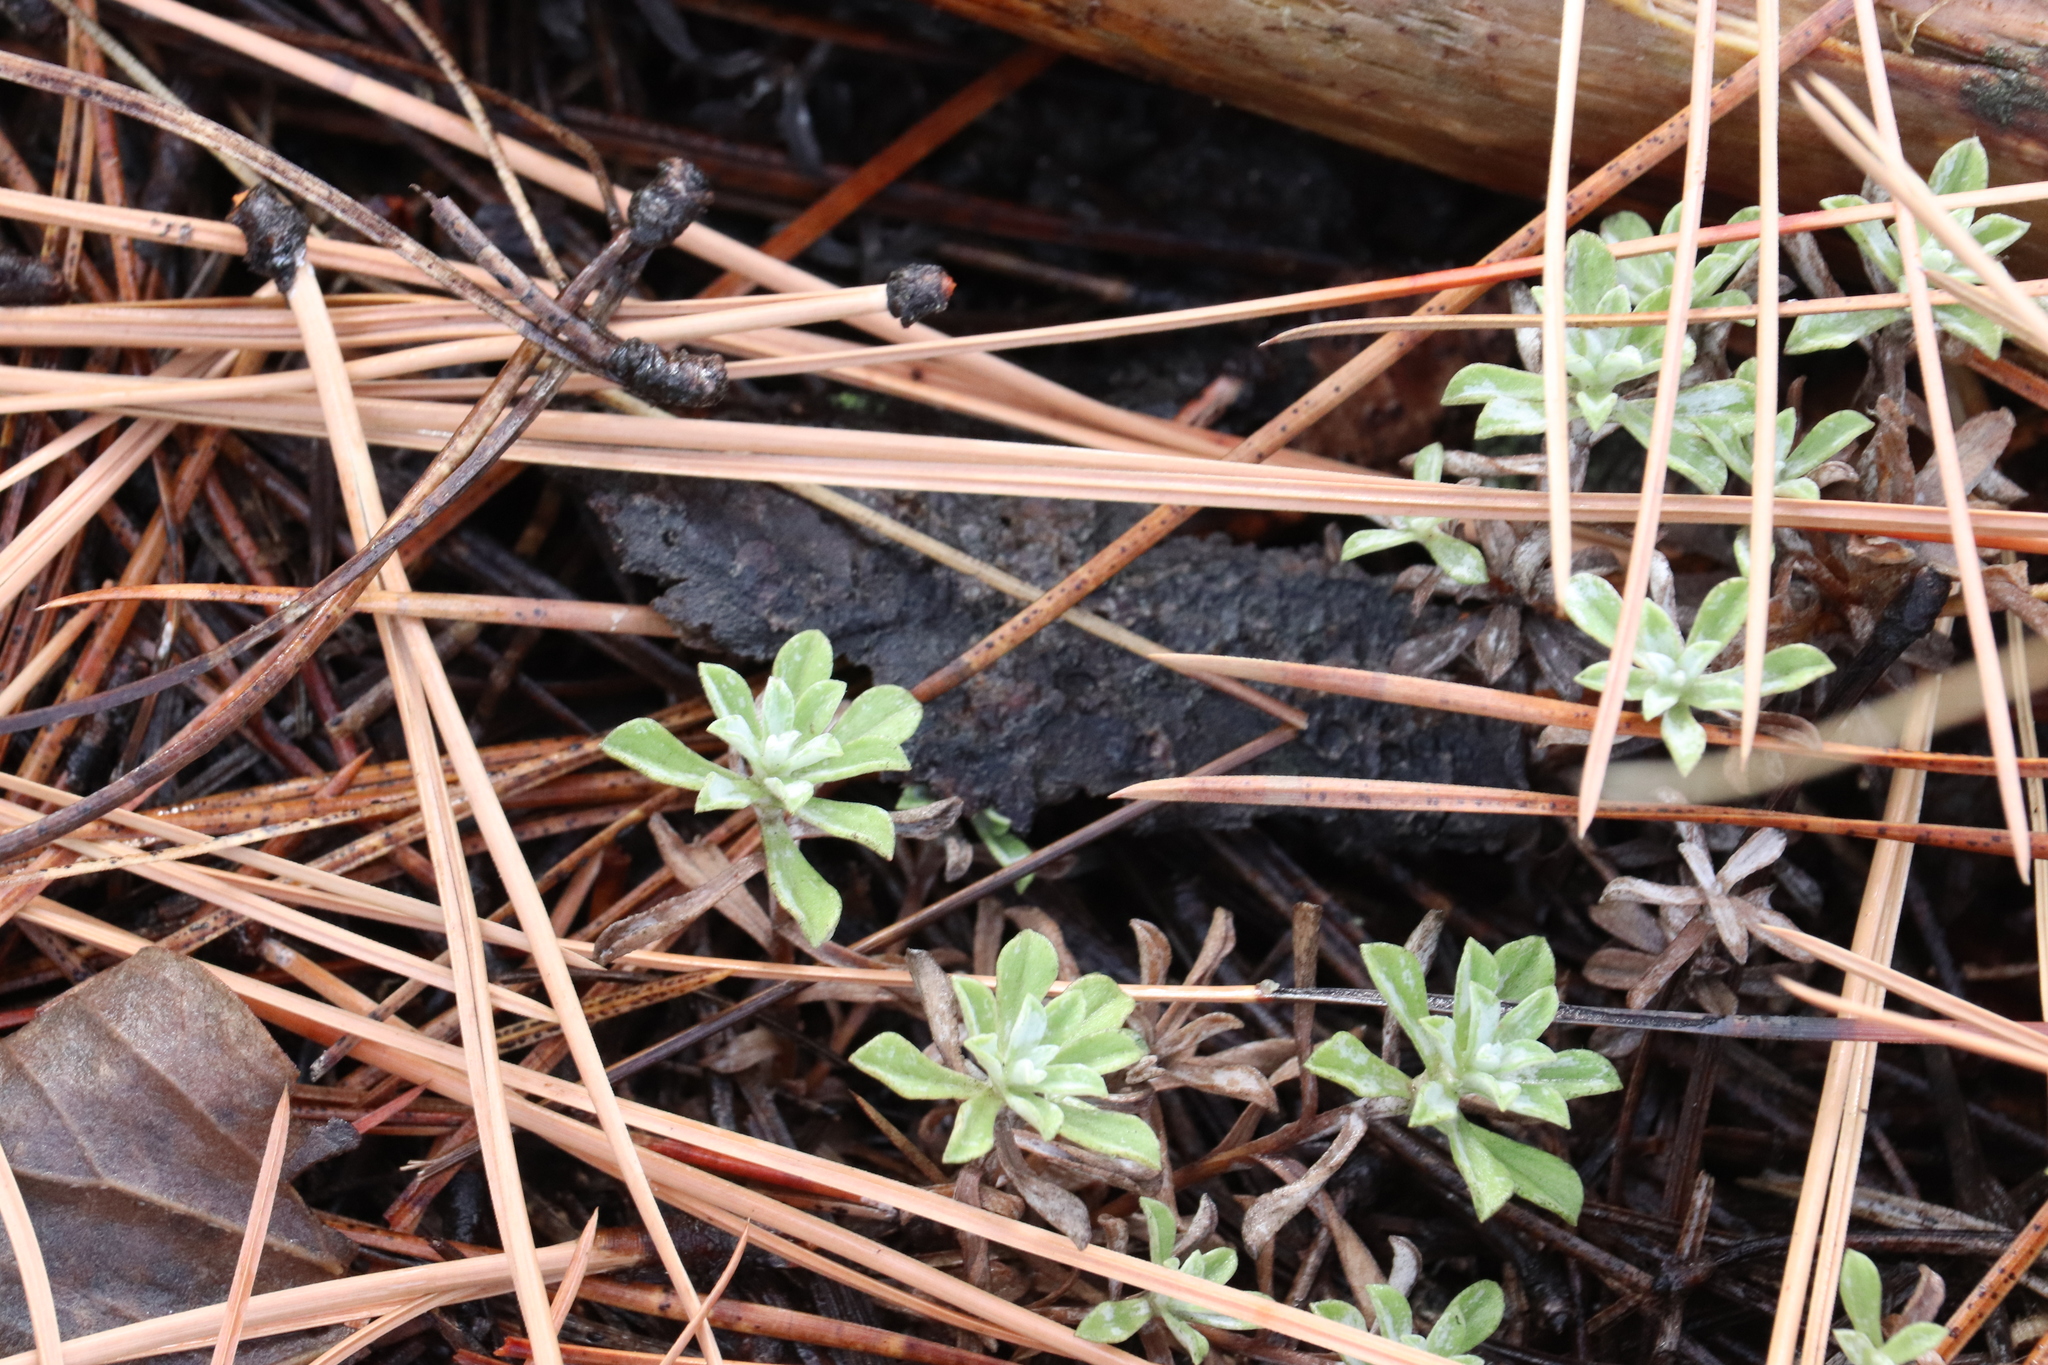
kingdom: Plantae
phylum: Tracheophyta
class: Magnoliopsida
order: Asterales
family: Asteraceae
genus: Antennaria
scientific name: Antennaria umbrinella
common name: Brown pussytoes
